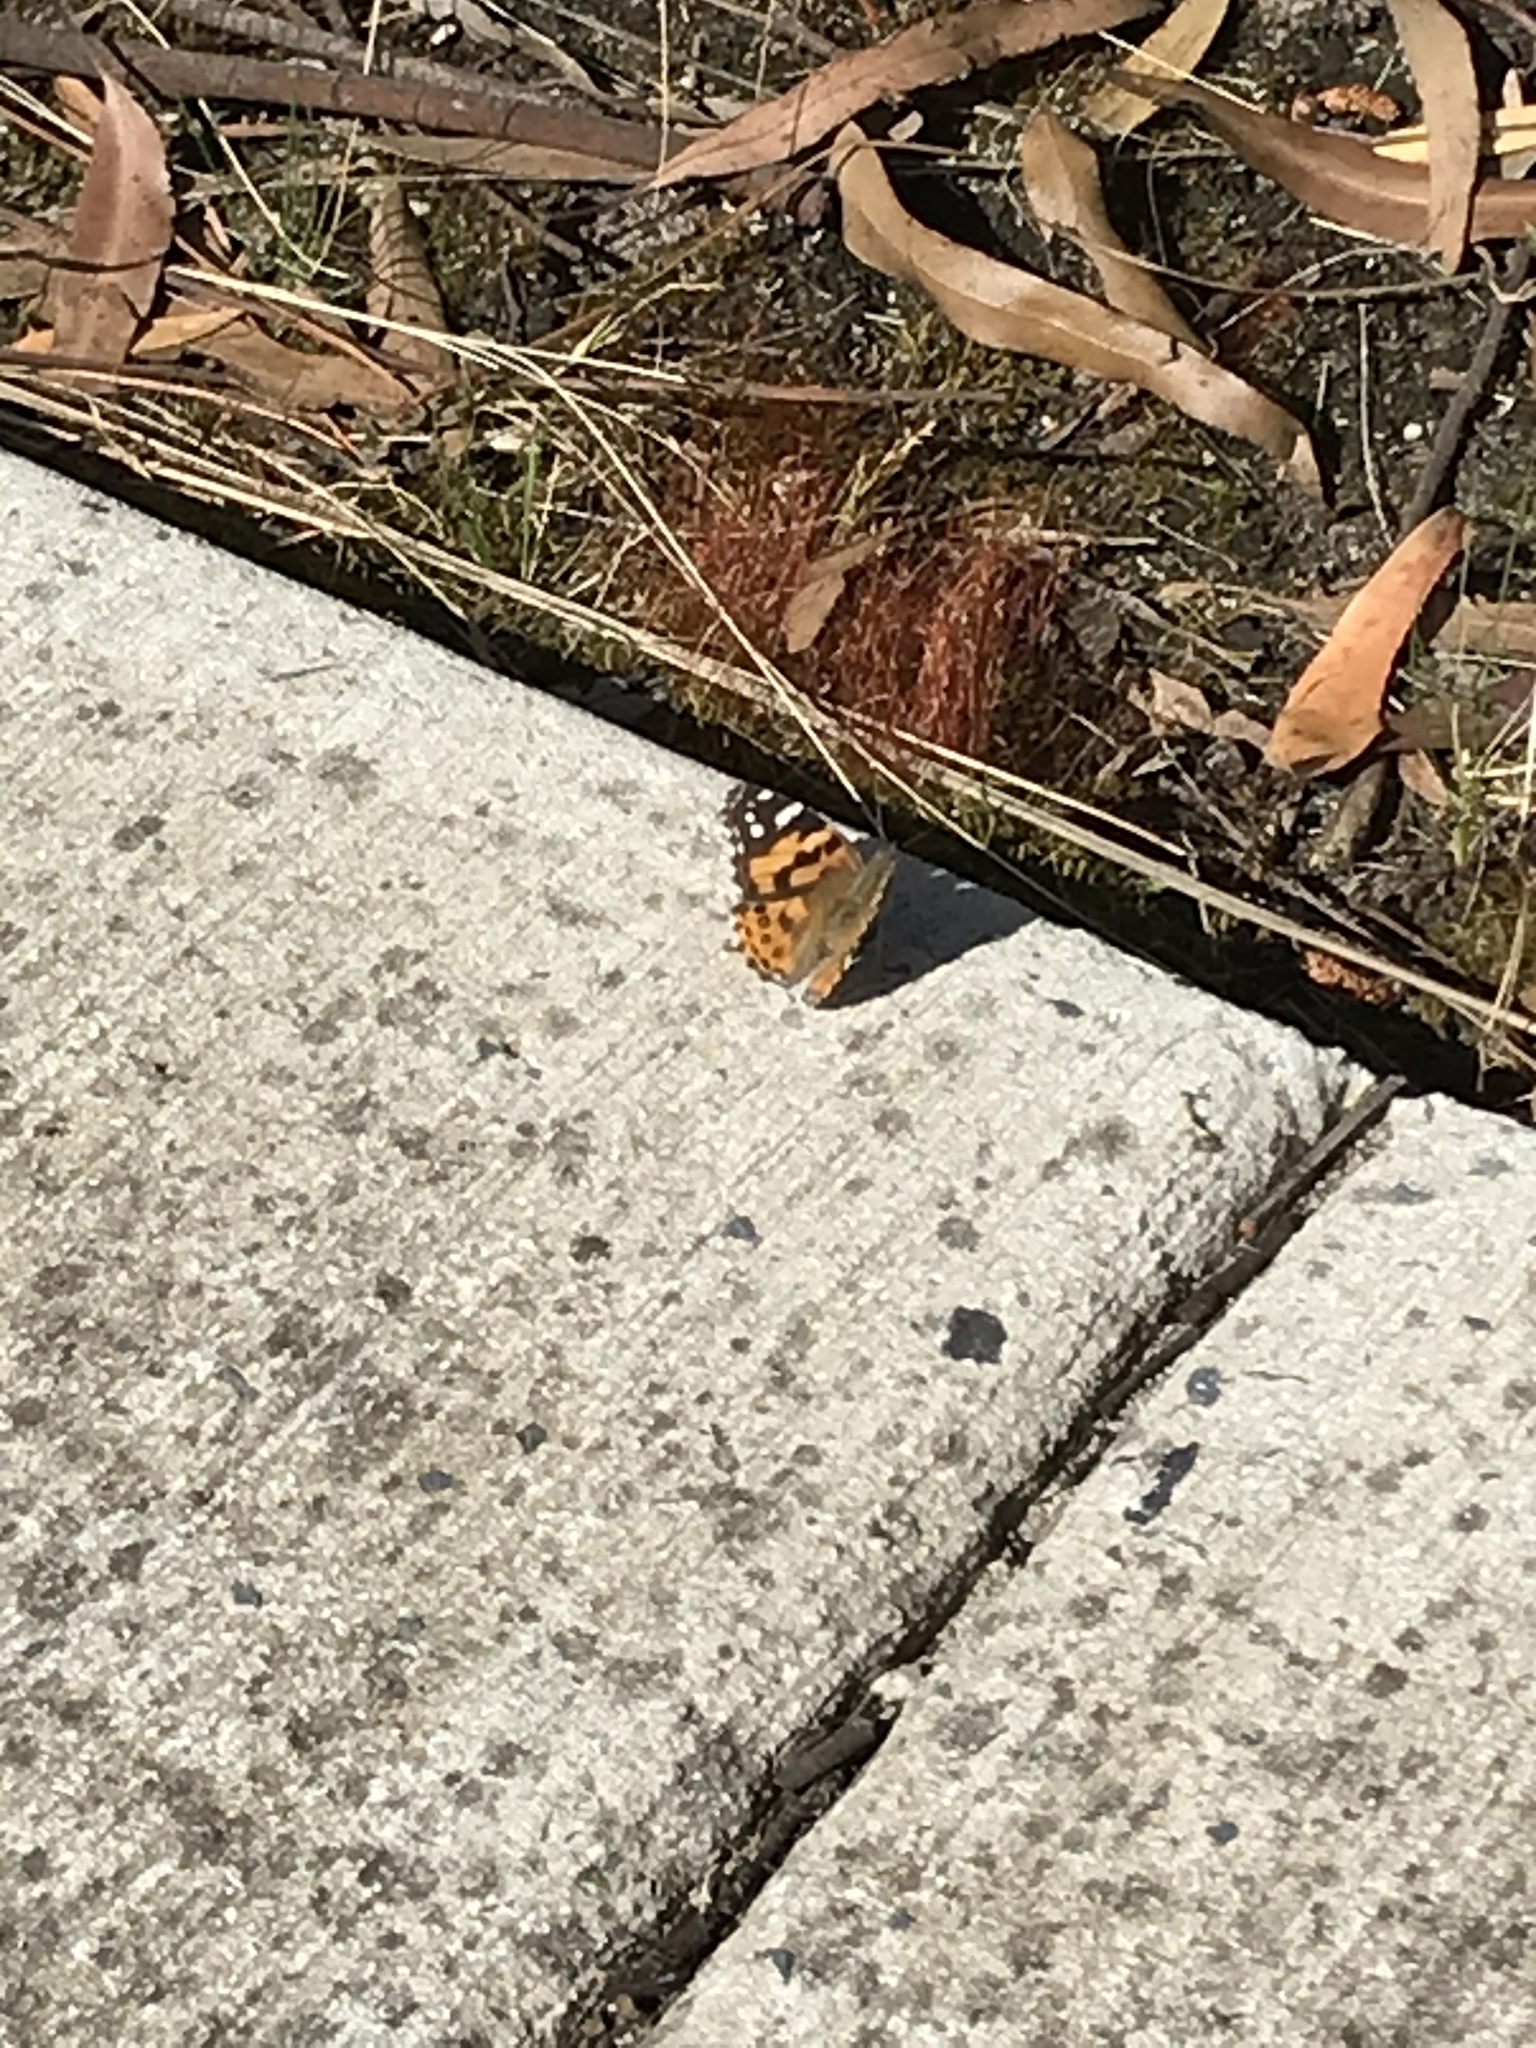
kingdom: Animalia
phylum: Arthropoda
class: Insecta
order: Lepidoptera
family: Nymphalidae
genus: Vanessa
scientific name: Vanessa kershawi
